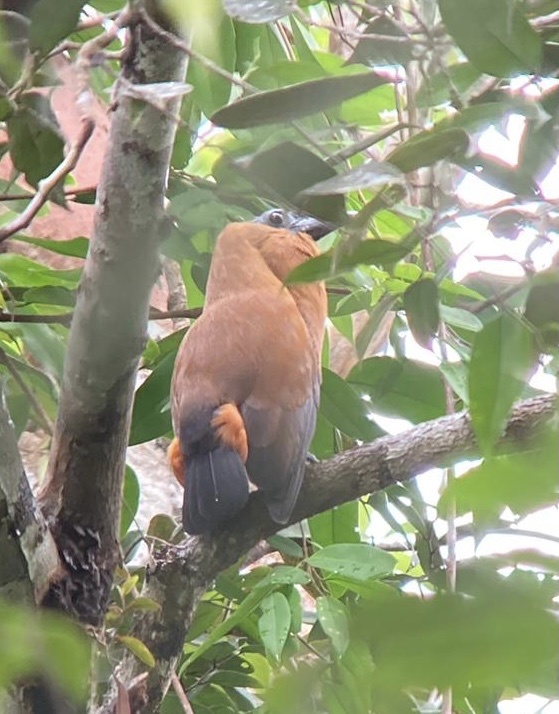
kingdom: Animalia
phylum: Chordata
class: Aves
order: Passeriformes
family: Cotingidae
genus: Perissocephalus
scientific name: Perissocephalus tricolor
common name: Capuchinbird
